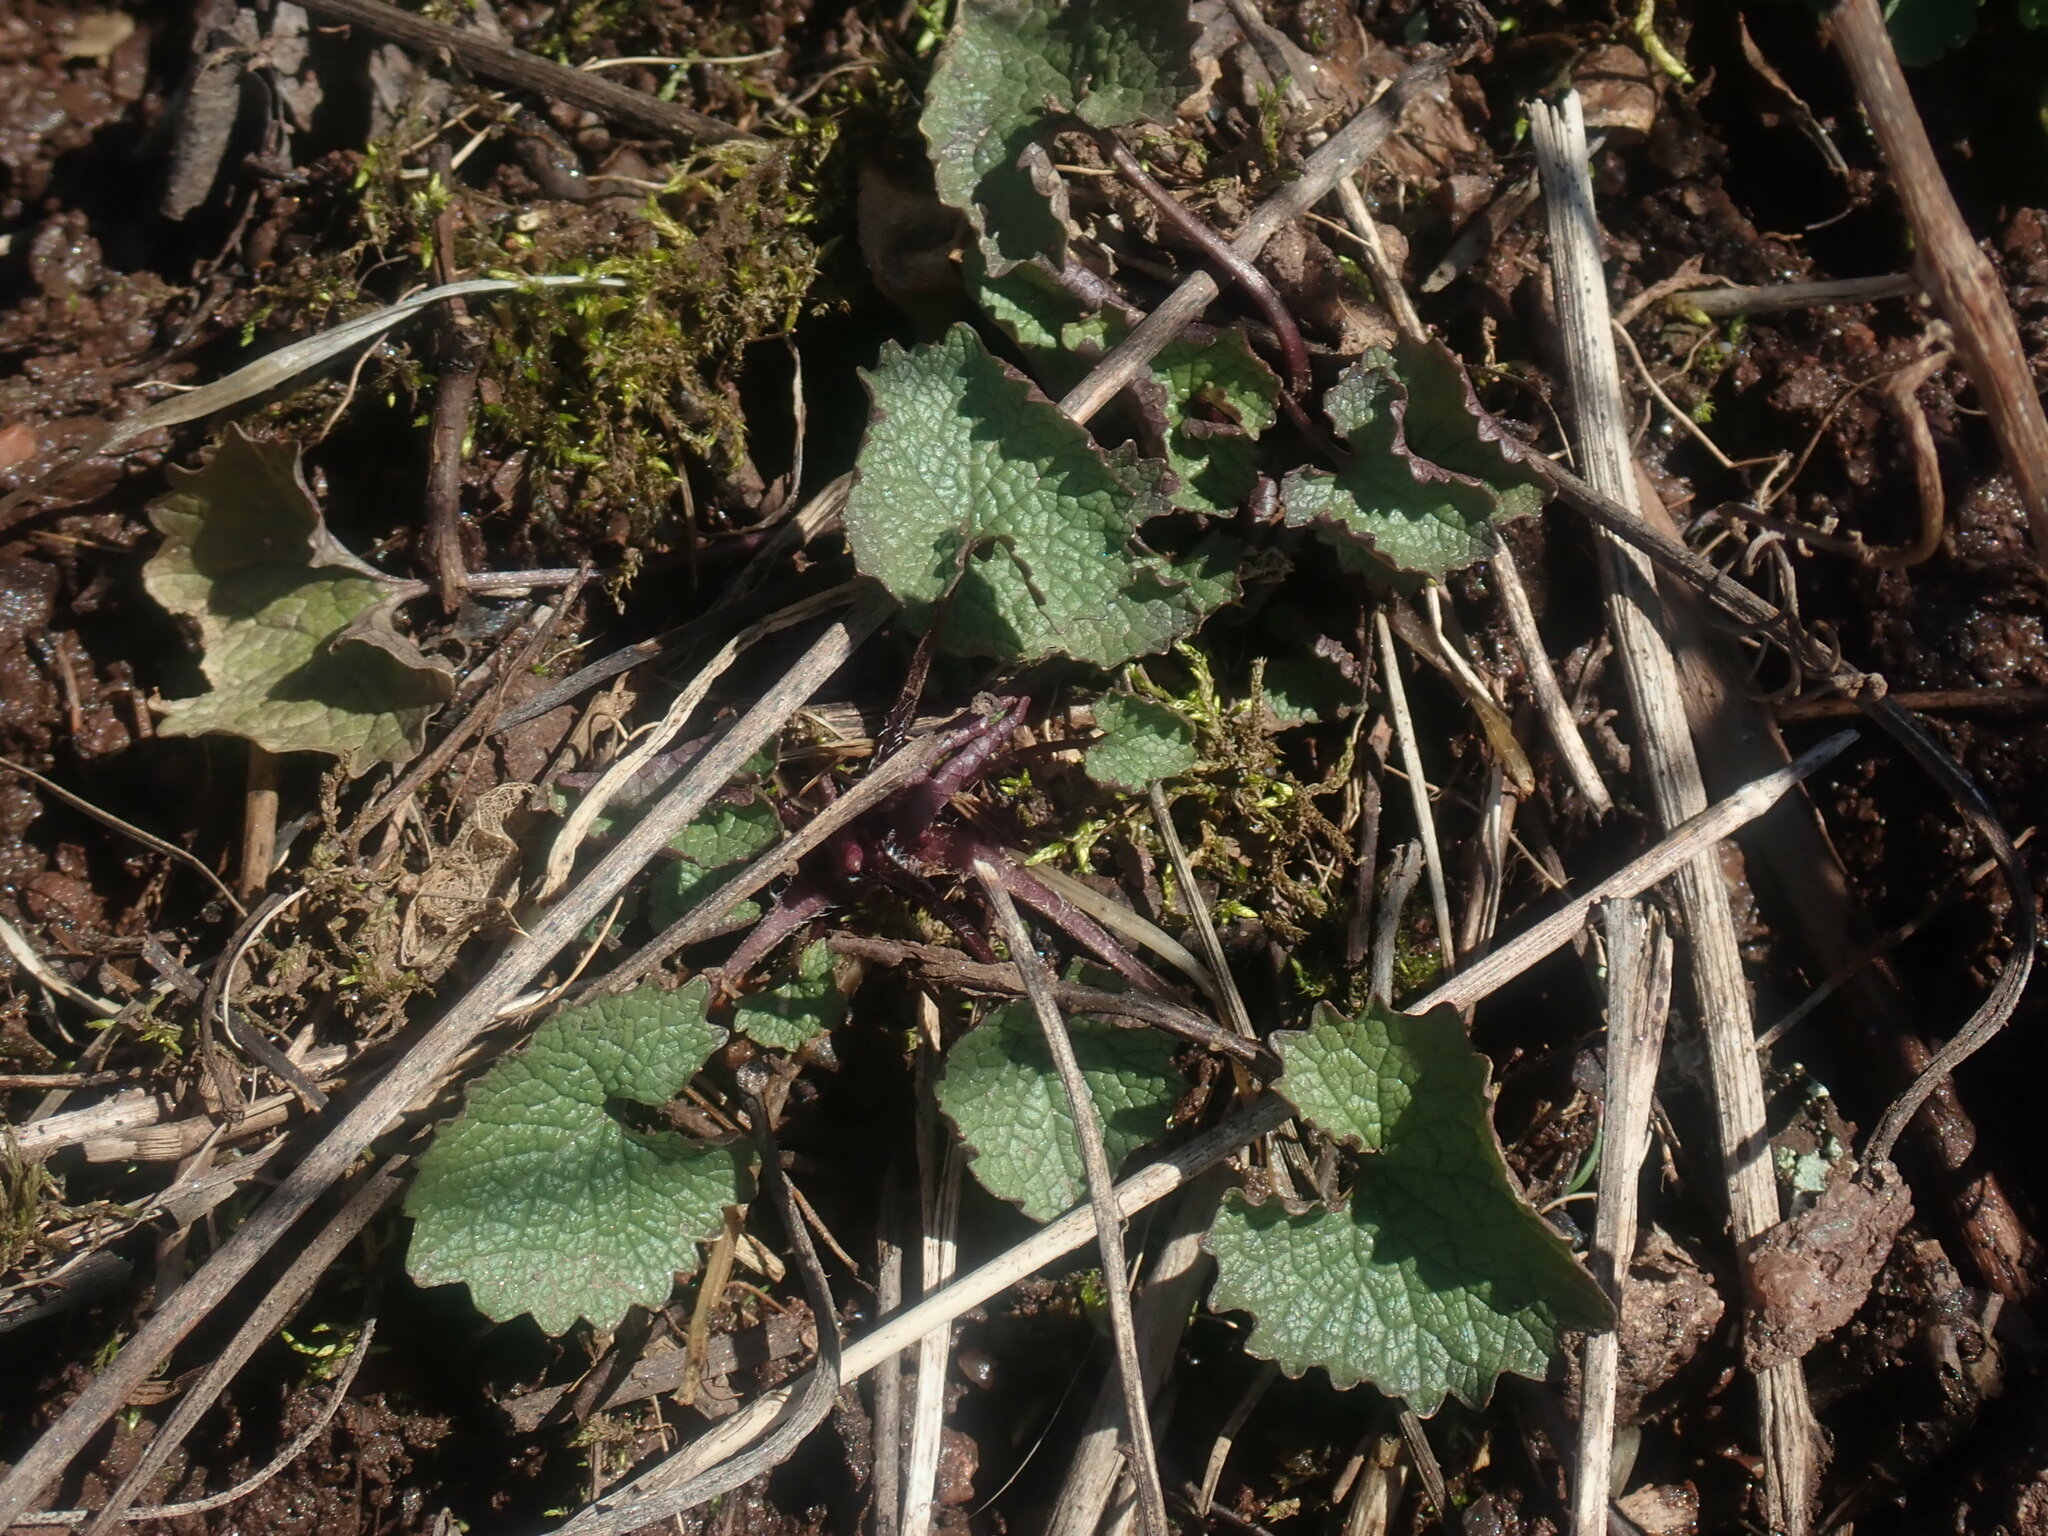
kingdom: Plantae
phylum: Tracheophyta
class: Magnoliopsida
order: Brassicales
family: Brassicaceae
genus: Alliaria
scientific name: Alliaria petiolata
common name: Garlic mustard
